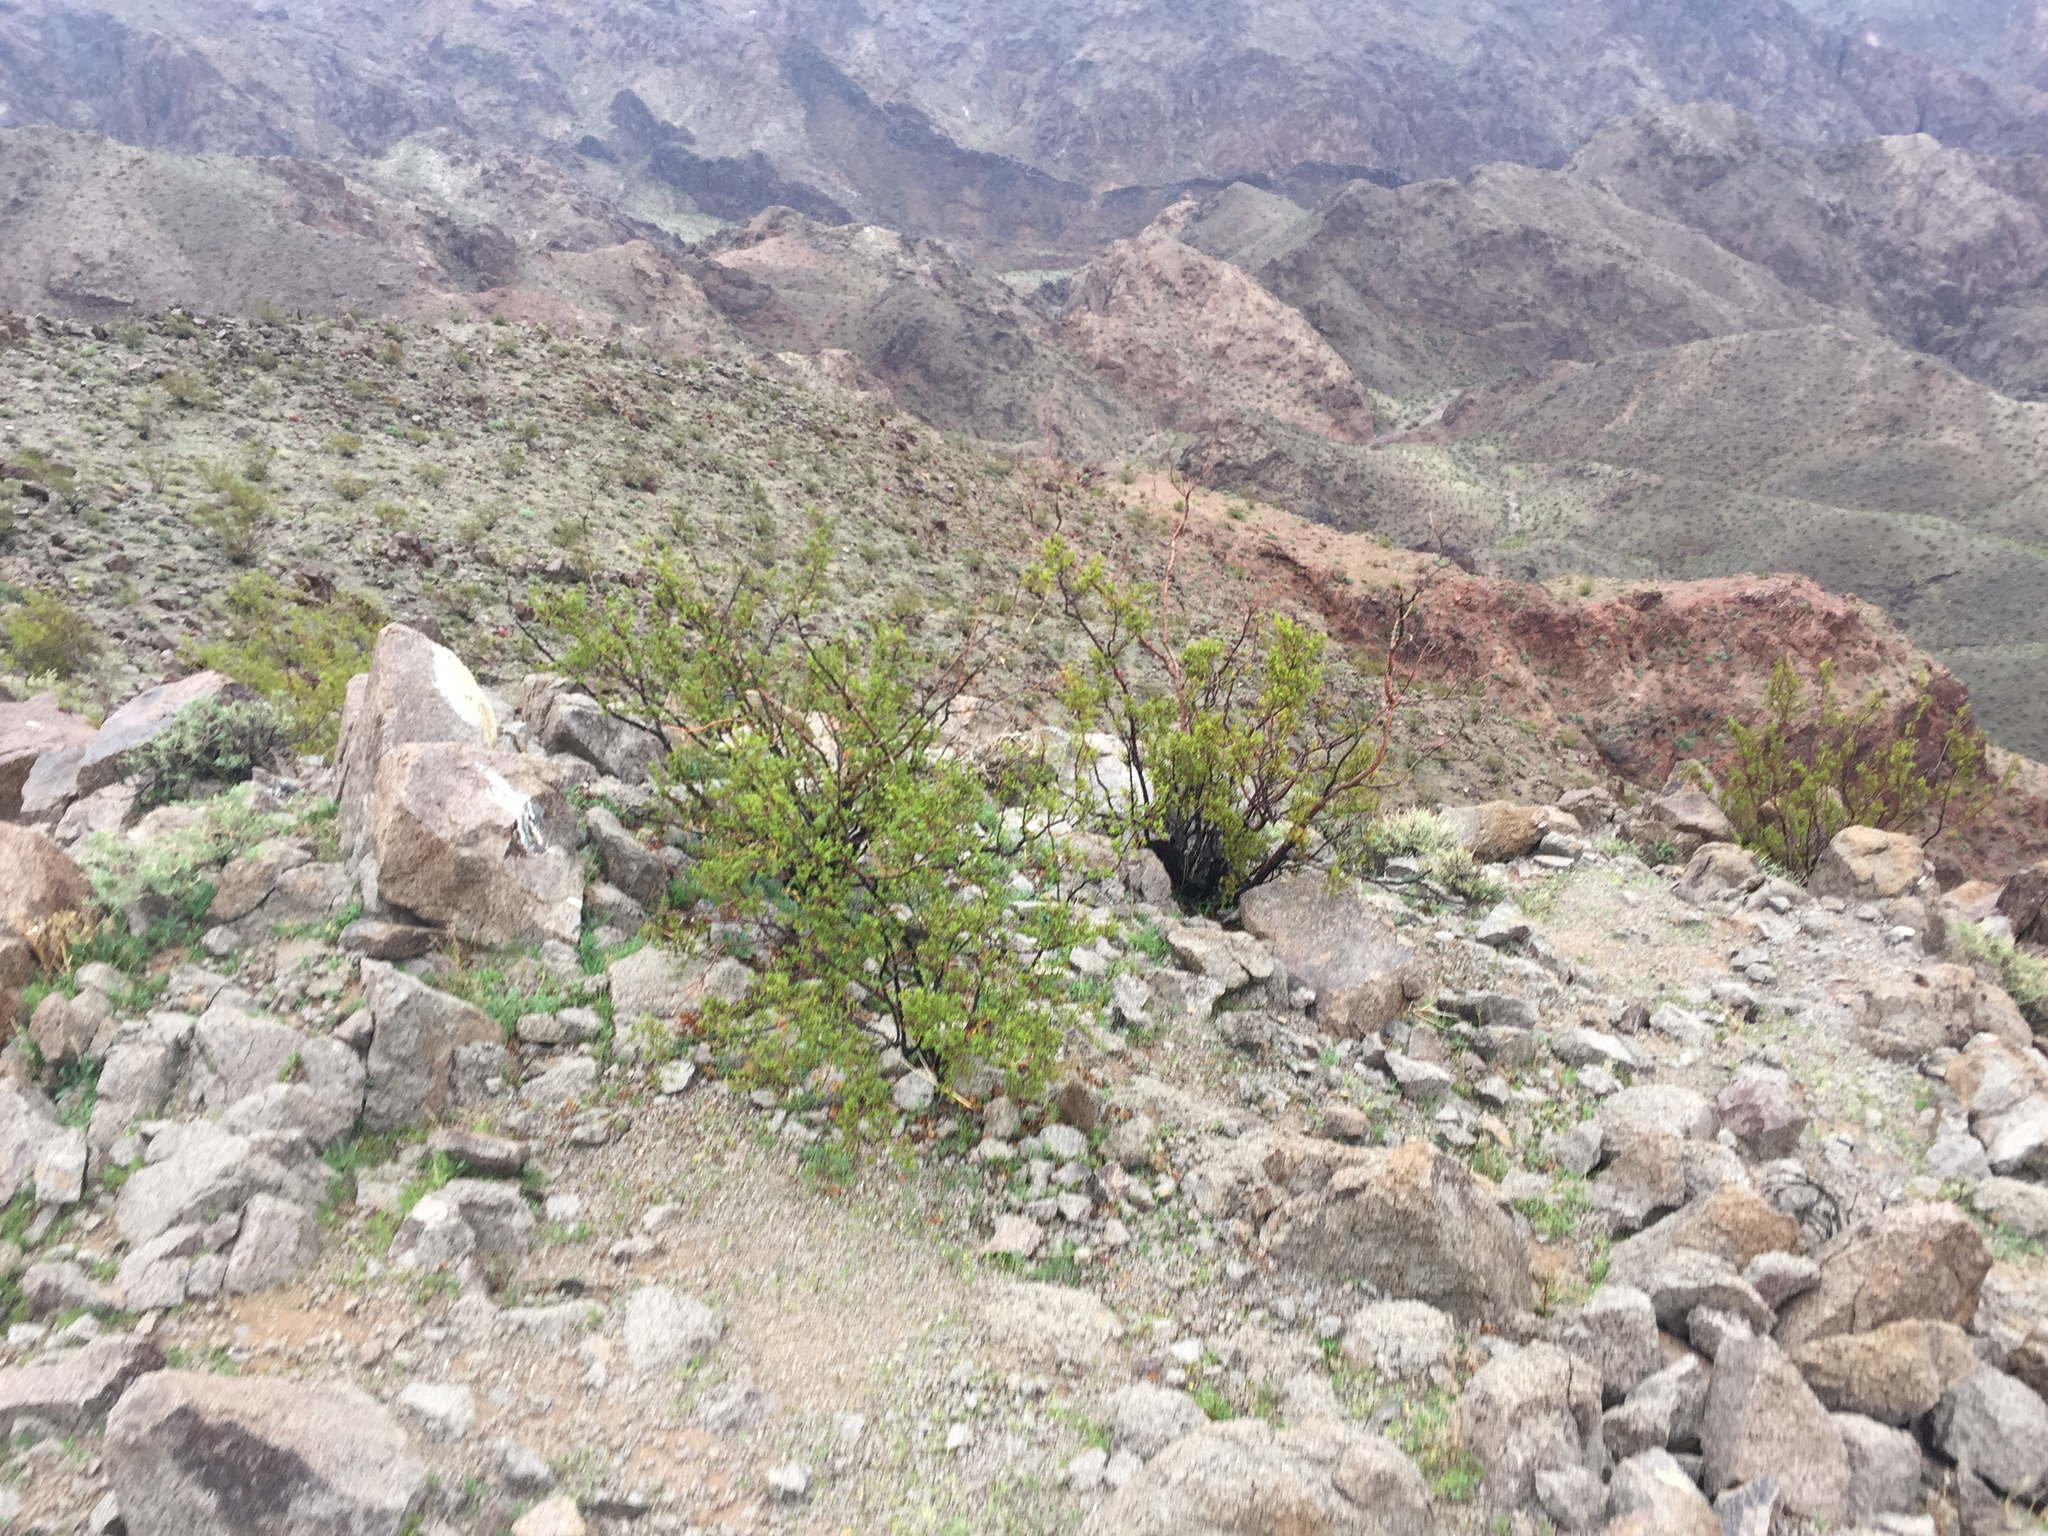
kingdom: Plantae
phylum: Tracheophyta
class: Magnoliopsida
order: Zygophyllales
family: Zygophyllaceae
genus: Larrea
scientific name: Larrea tridentata
